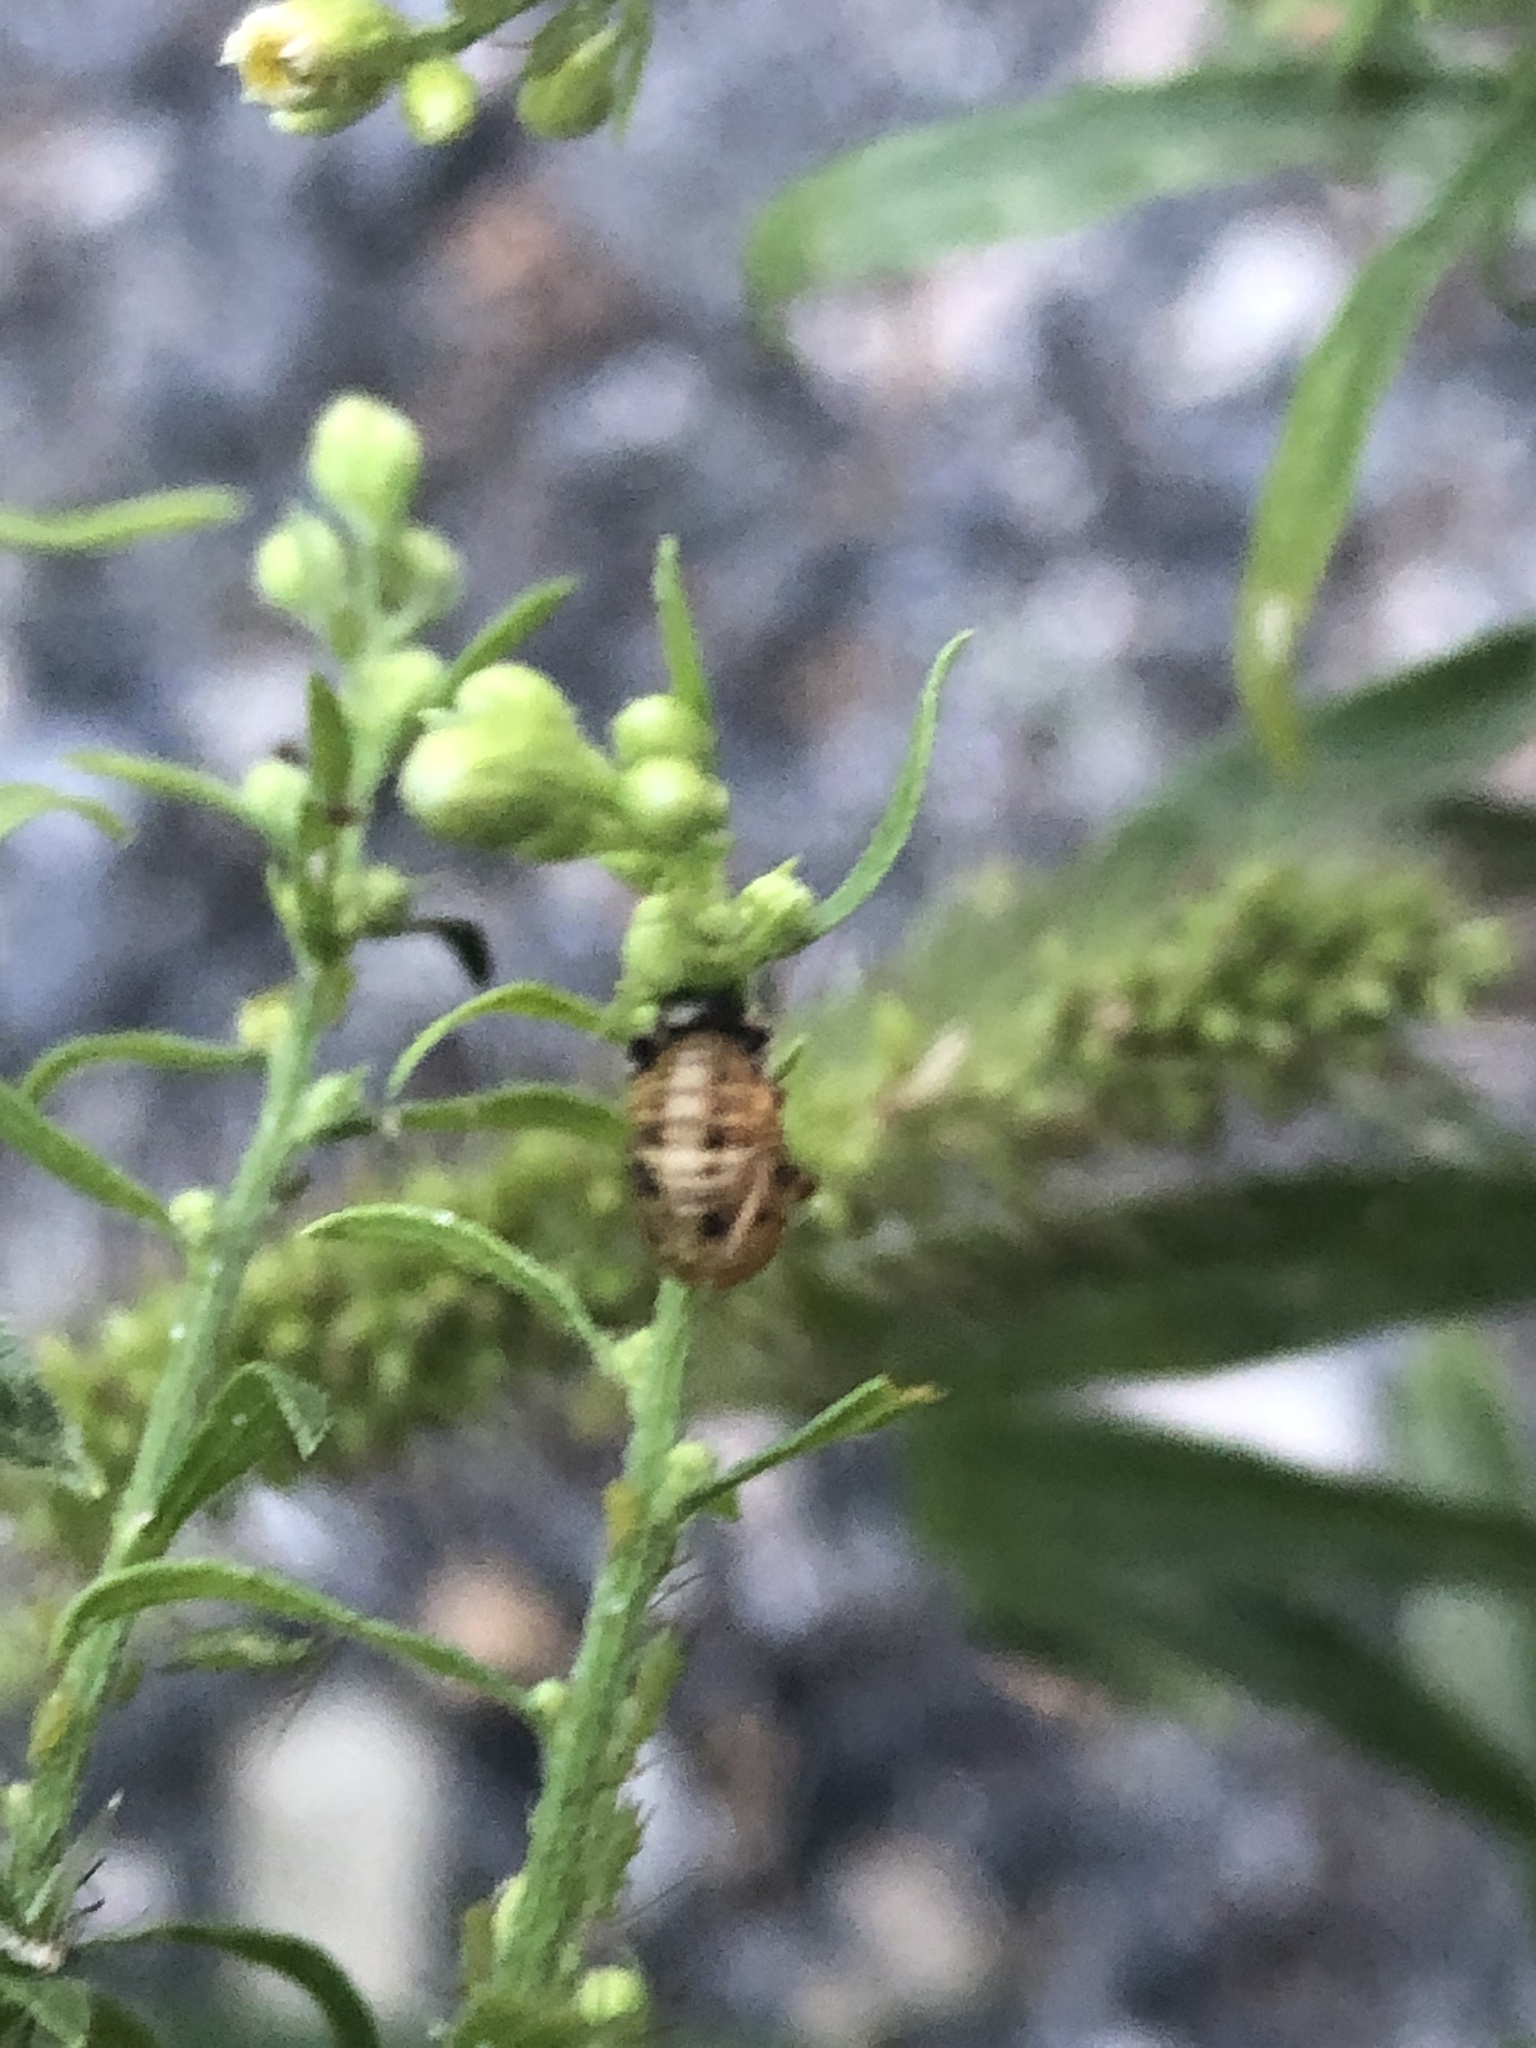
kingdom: Animalia
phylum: Arthropoda
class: Insecta
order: Coleoptera
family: Coccinellidae
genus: Harmonia
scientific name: Harmonia axyridis
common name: Harlequin ladybird
